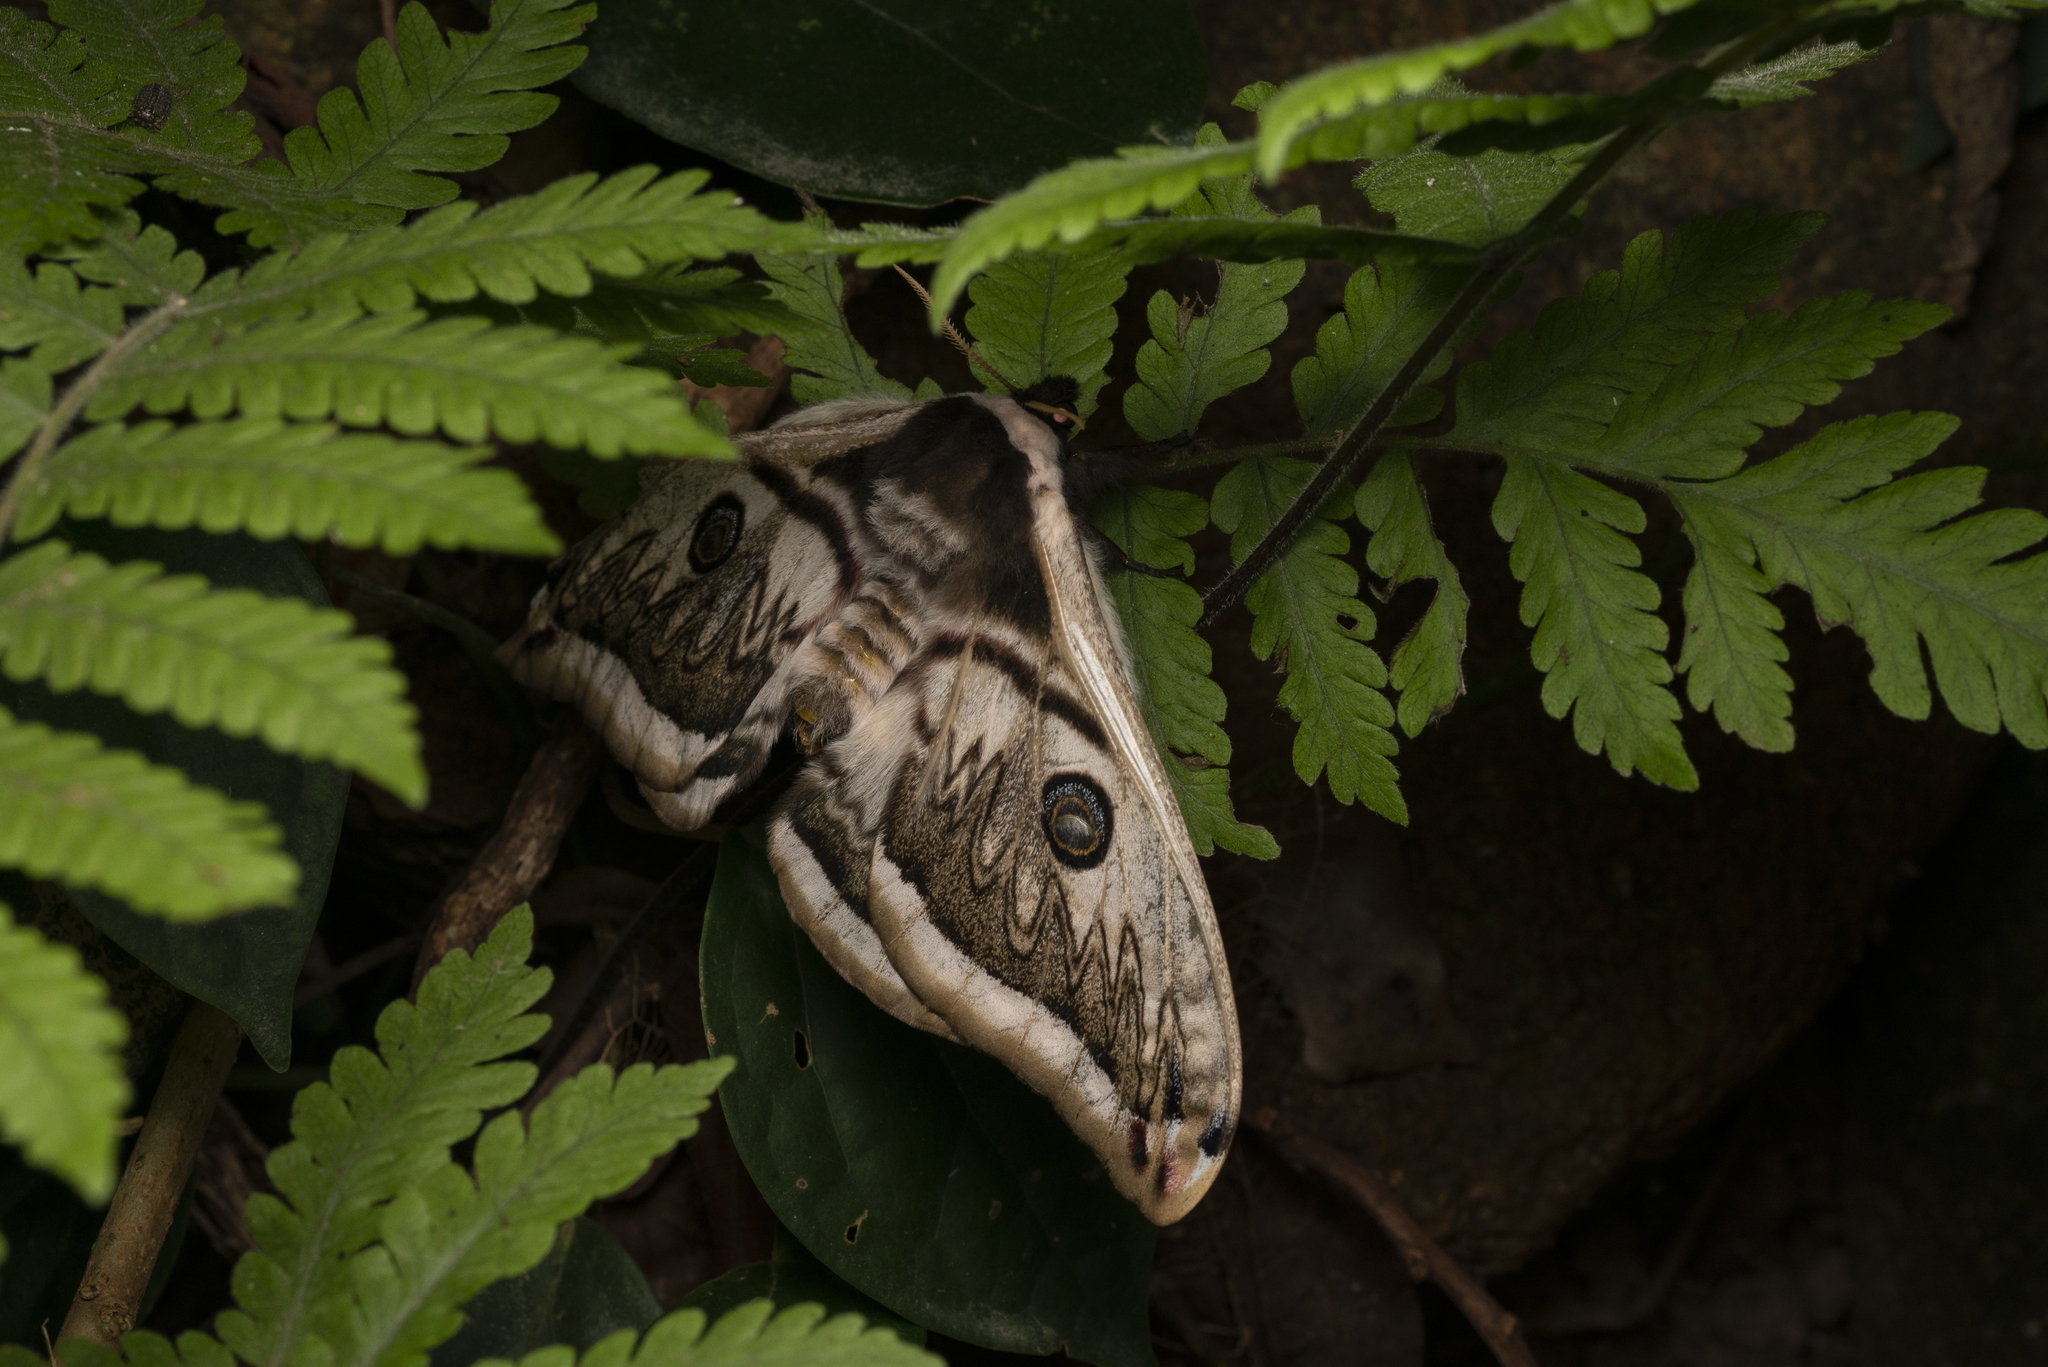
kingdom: Animalia
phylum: Arthropoda
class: Insecta
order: Lepidoptera
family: Saturniidae
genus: Saturnia
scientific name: Saturnia pyretorum
